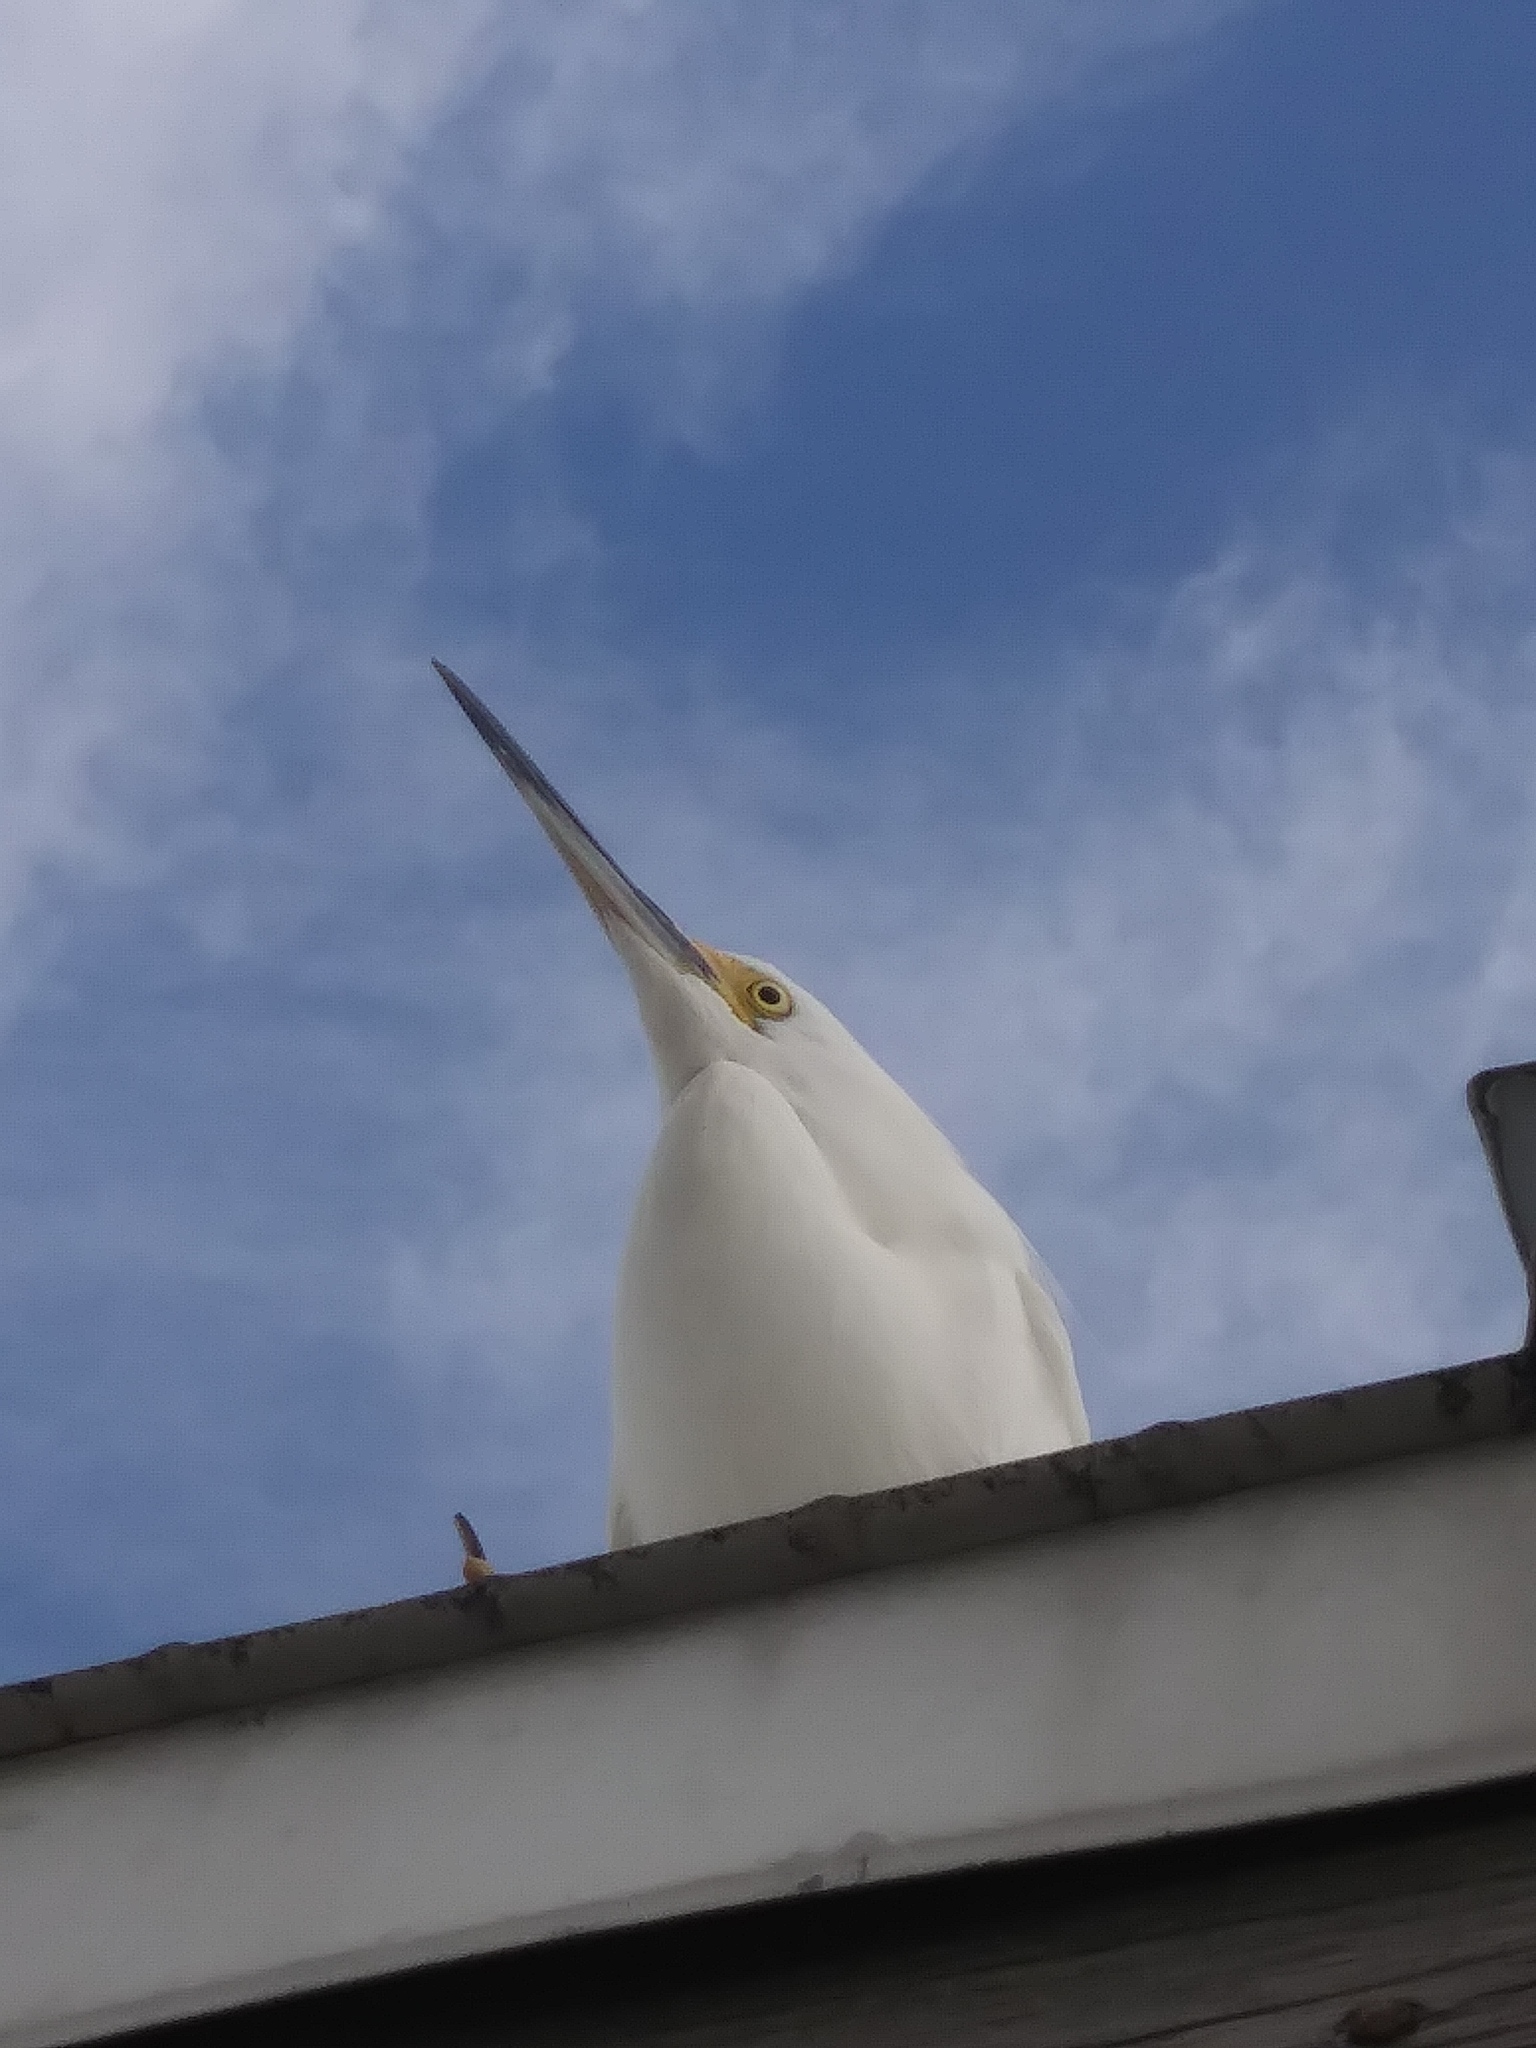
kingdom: Animalia
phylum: Chordata
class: Aves
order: Pelecaniformes
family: Ardeidae
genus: Egretta
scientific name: Egretta thula
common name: Snowy egret
